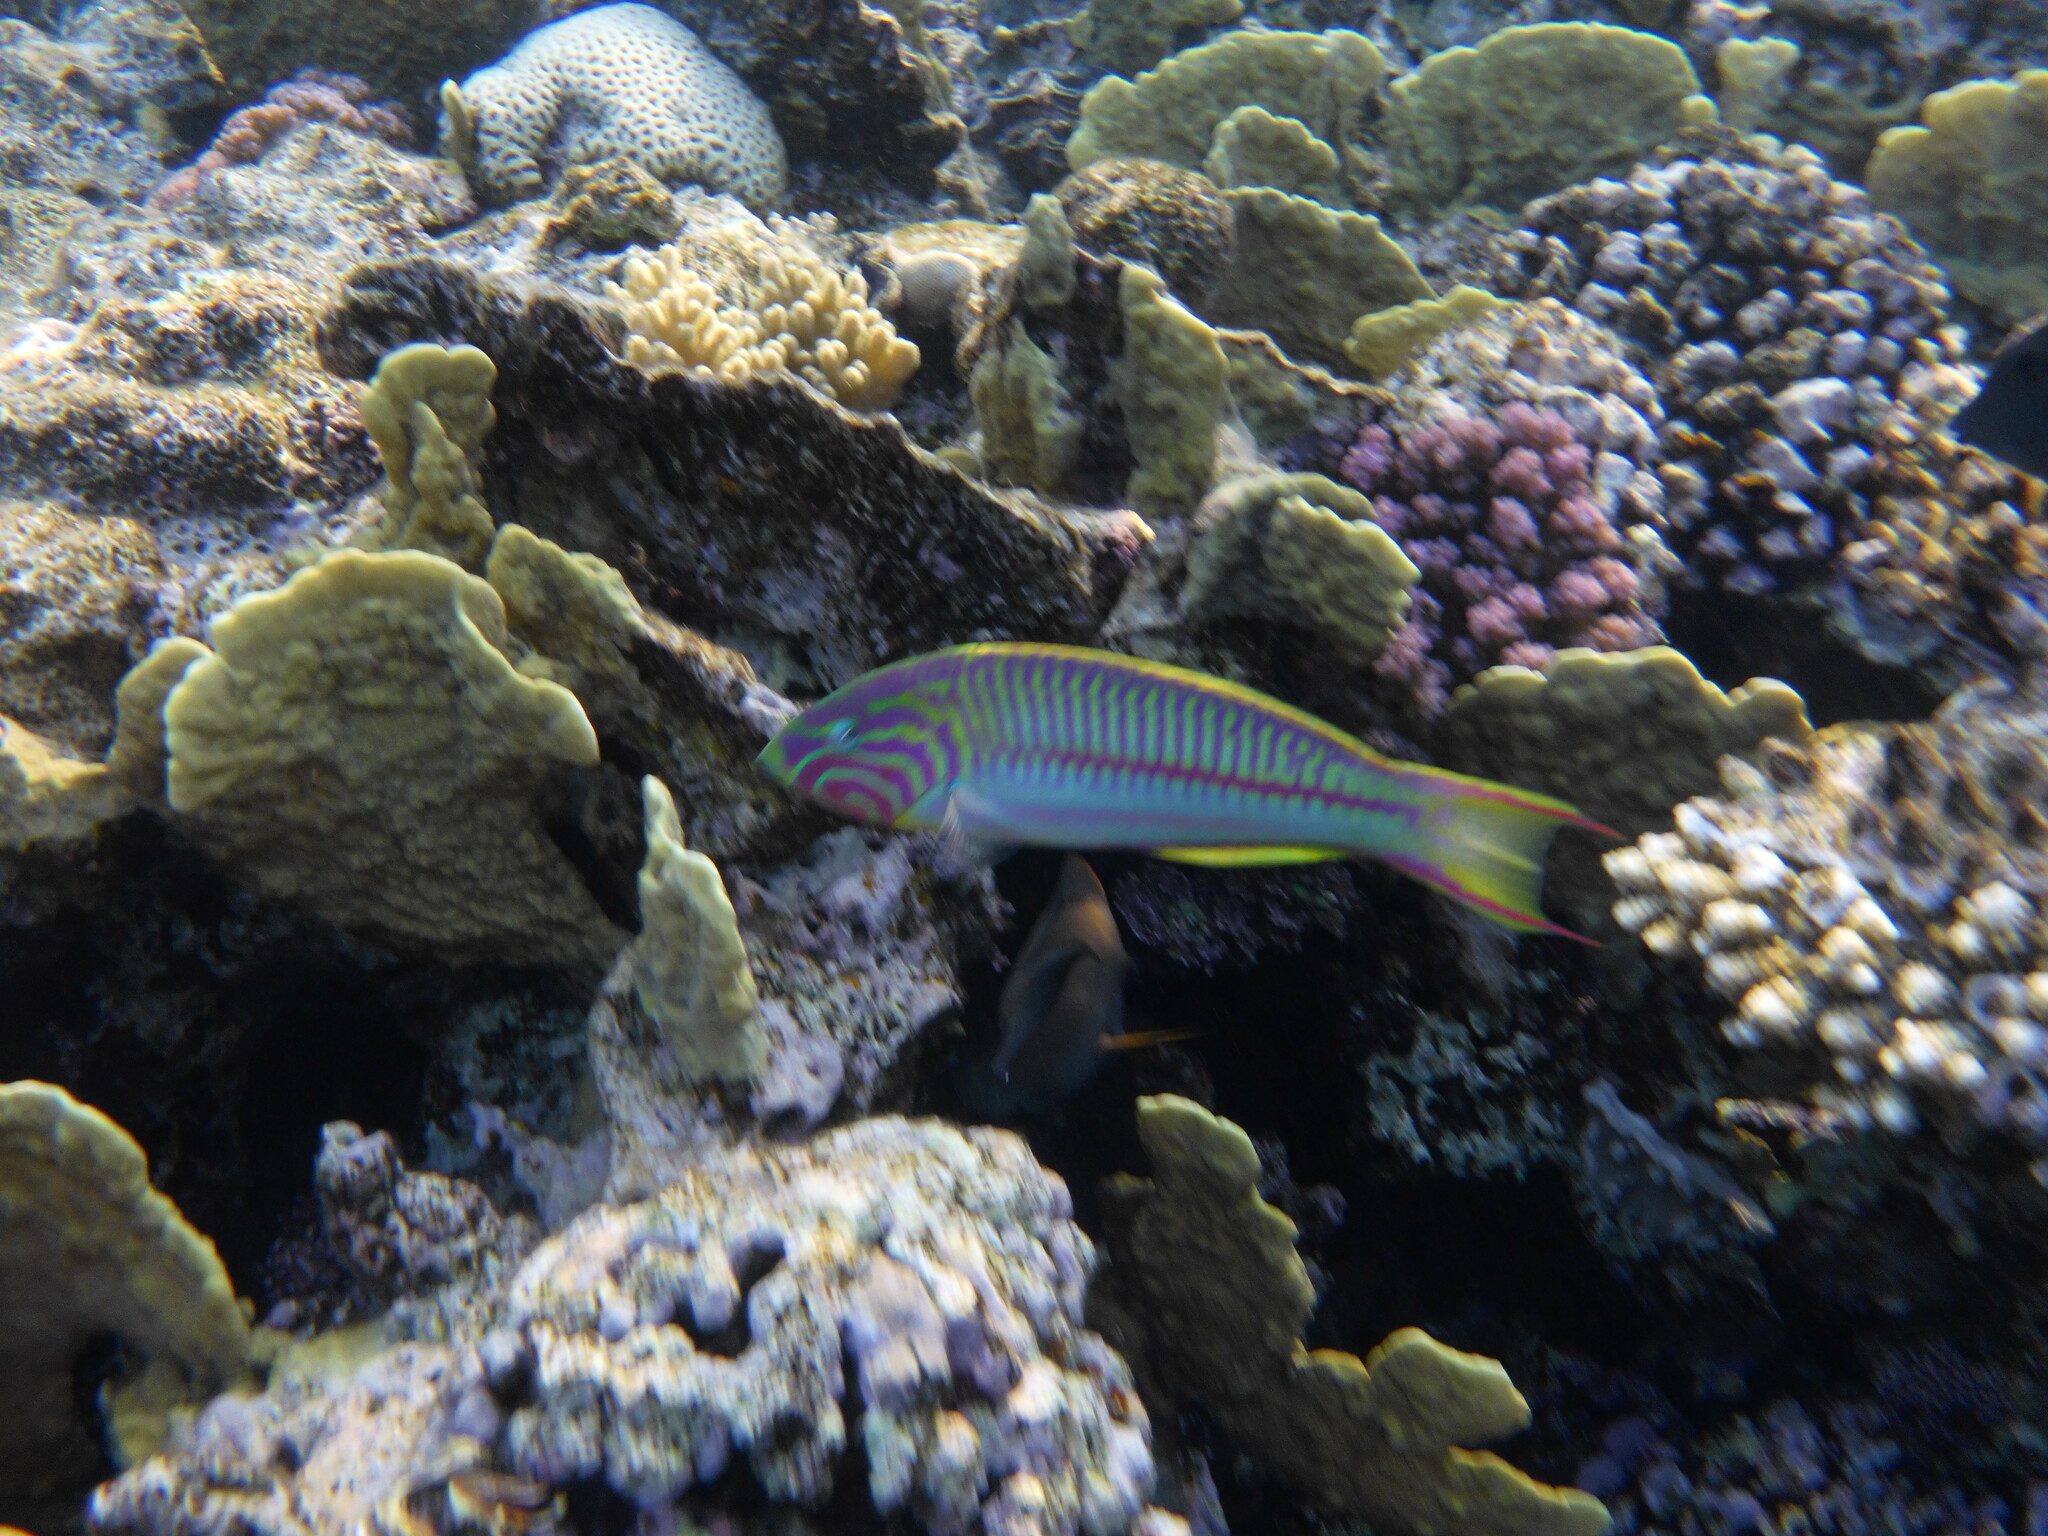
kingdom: Animalia
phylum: Chordata
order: Perciformes
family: Labridae
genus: Thalassoma
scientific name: Thalassoma rueppellii
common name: Klunzinger's wrasse
